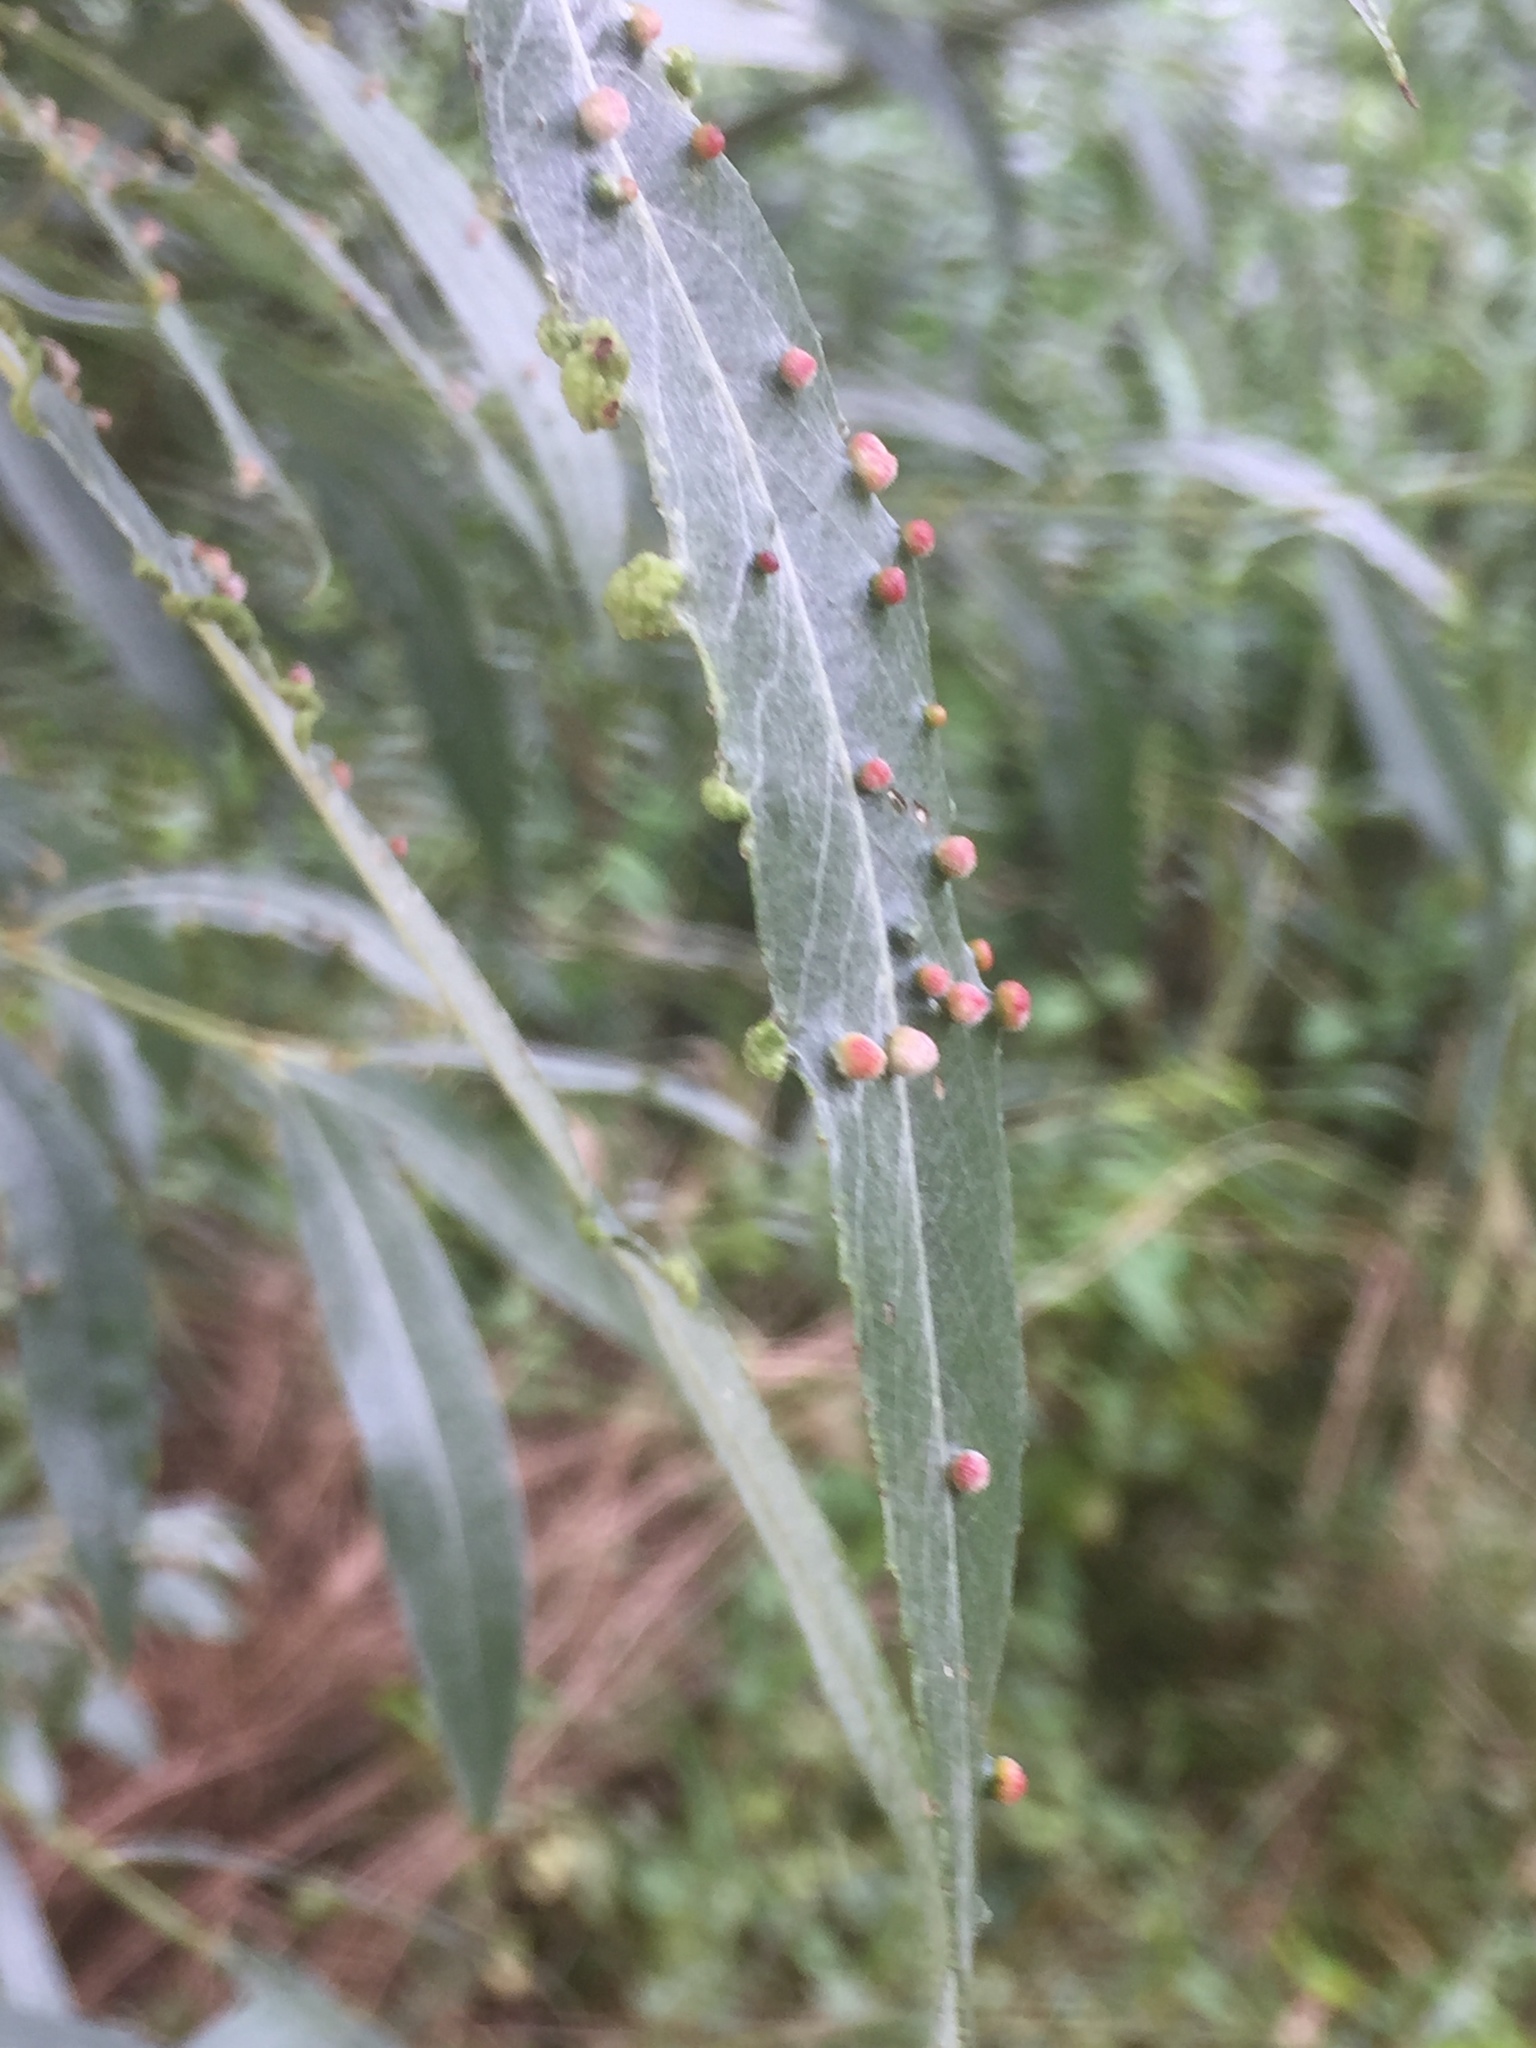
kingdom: Animalia
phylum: Arthropoda
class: Arachnida
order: Trombidiformes
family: Eriophyidae
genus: Aculus
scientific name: Aculus tetanothrix
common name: Willow bead gall mite
